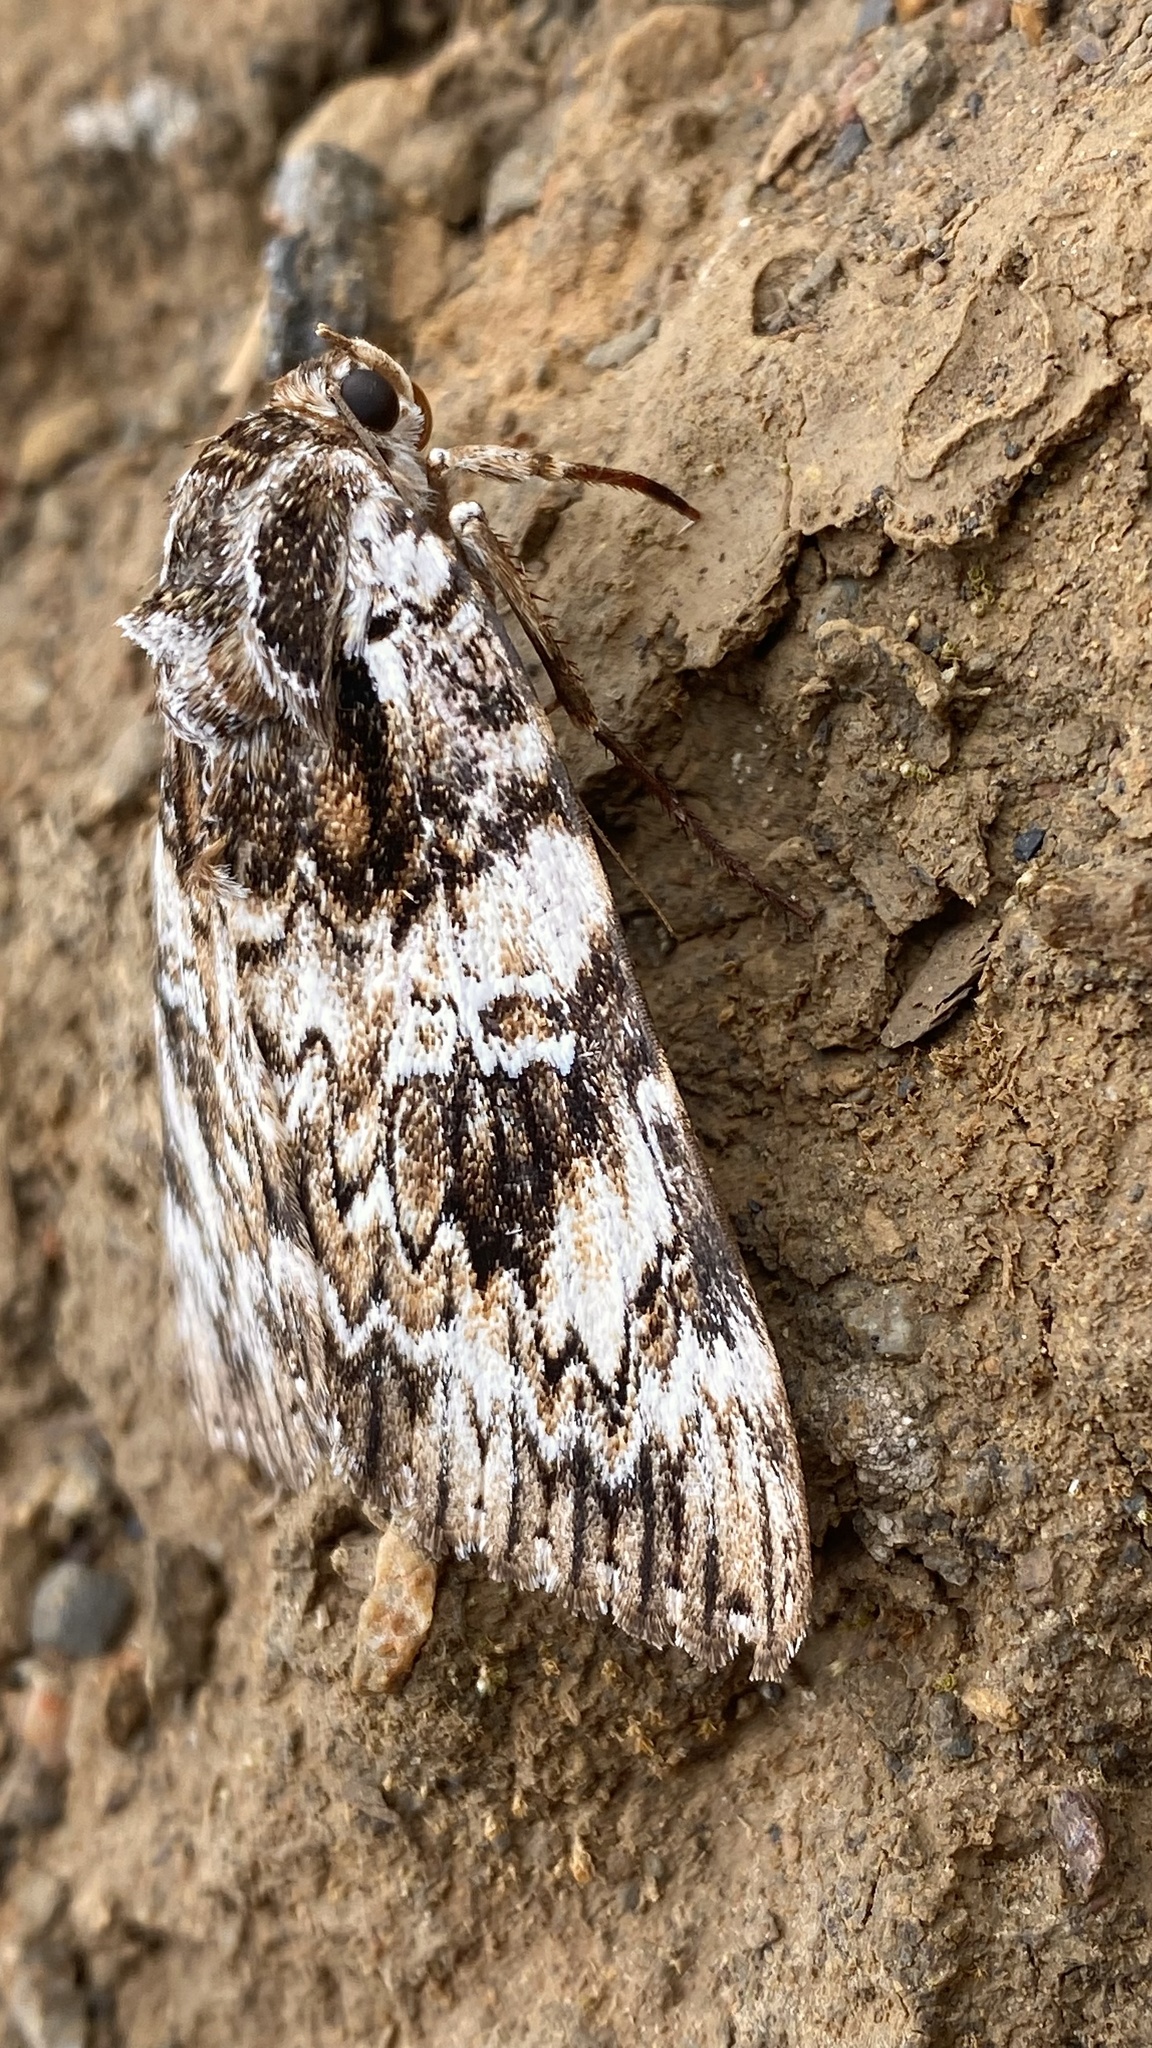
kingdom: Animalia
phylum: Arthropoda
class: Insecta
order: Lepidoptera
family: Erebidae
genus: Catocala
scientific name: Catocala aholibah
